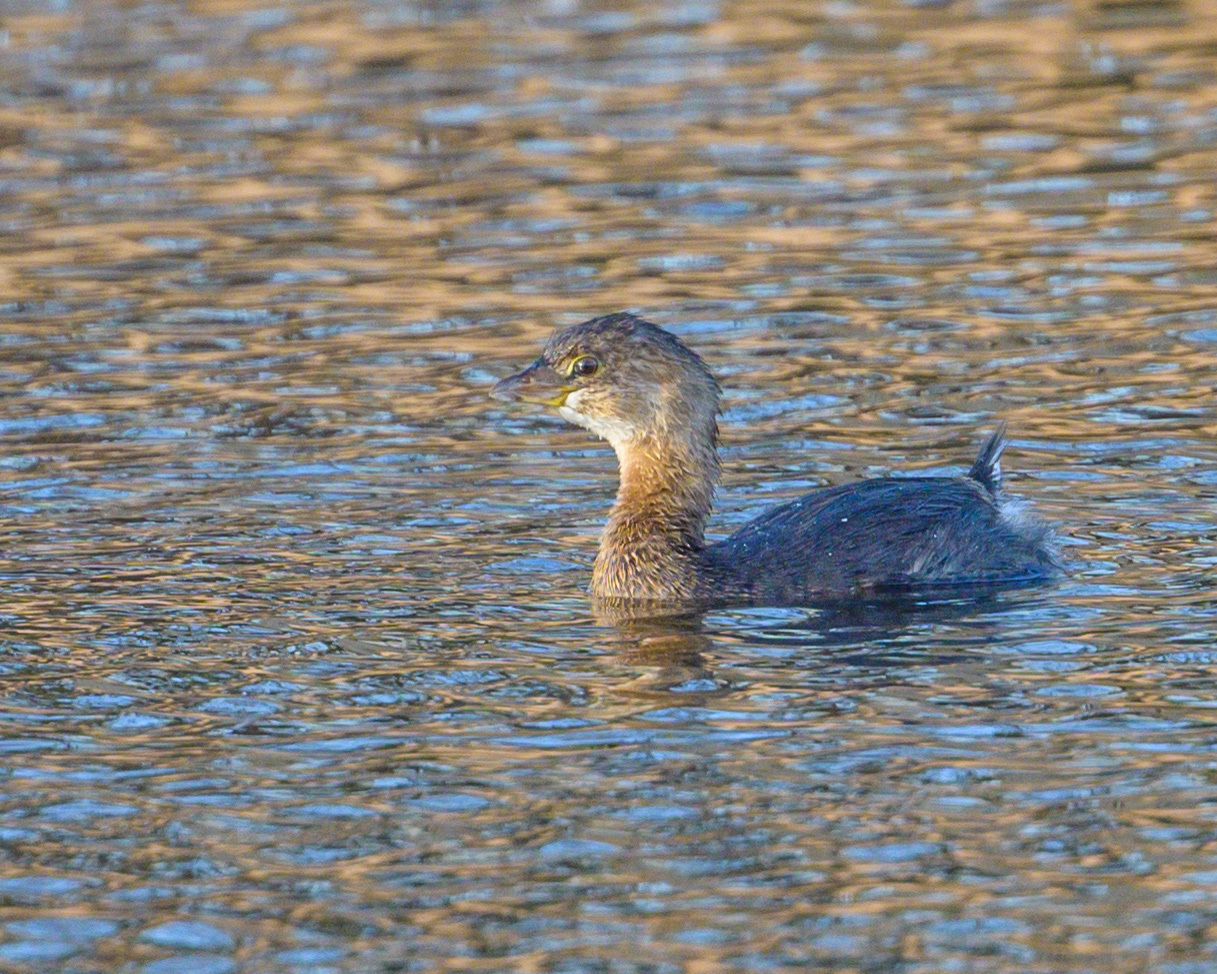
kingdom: Animalia
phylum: Chordata
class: Aves
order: Podicipediformes
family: Podicipedidae
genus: Podilymbus
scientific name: Podilymbus podiceps
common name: Pied-billed grebe
